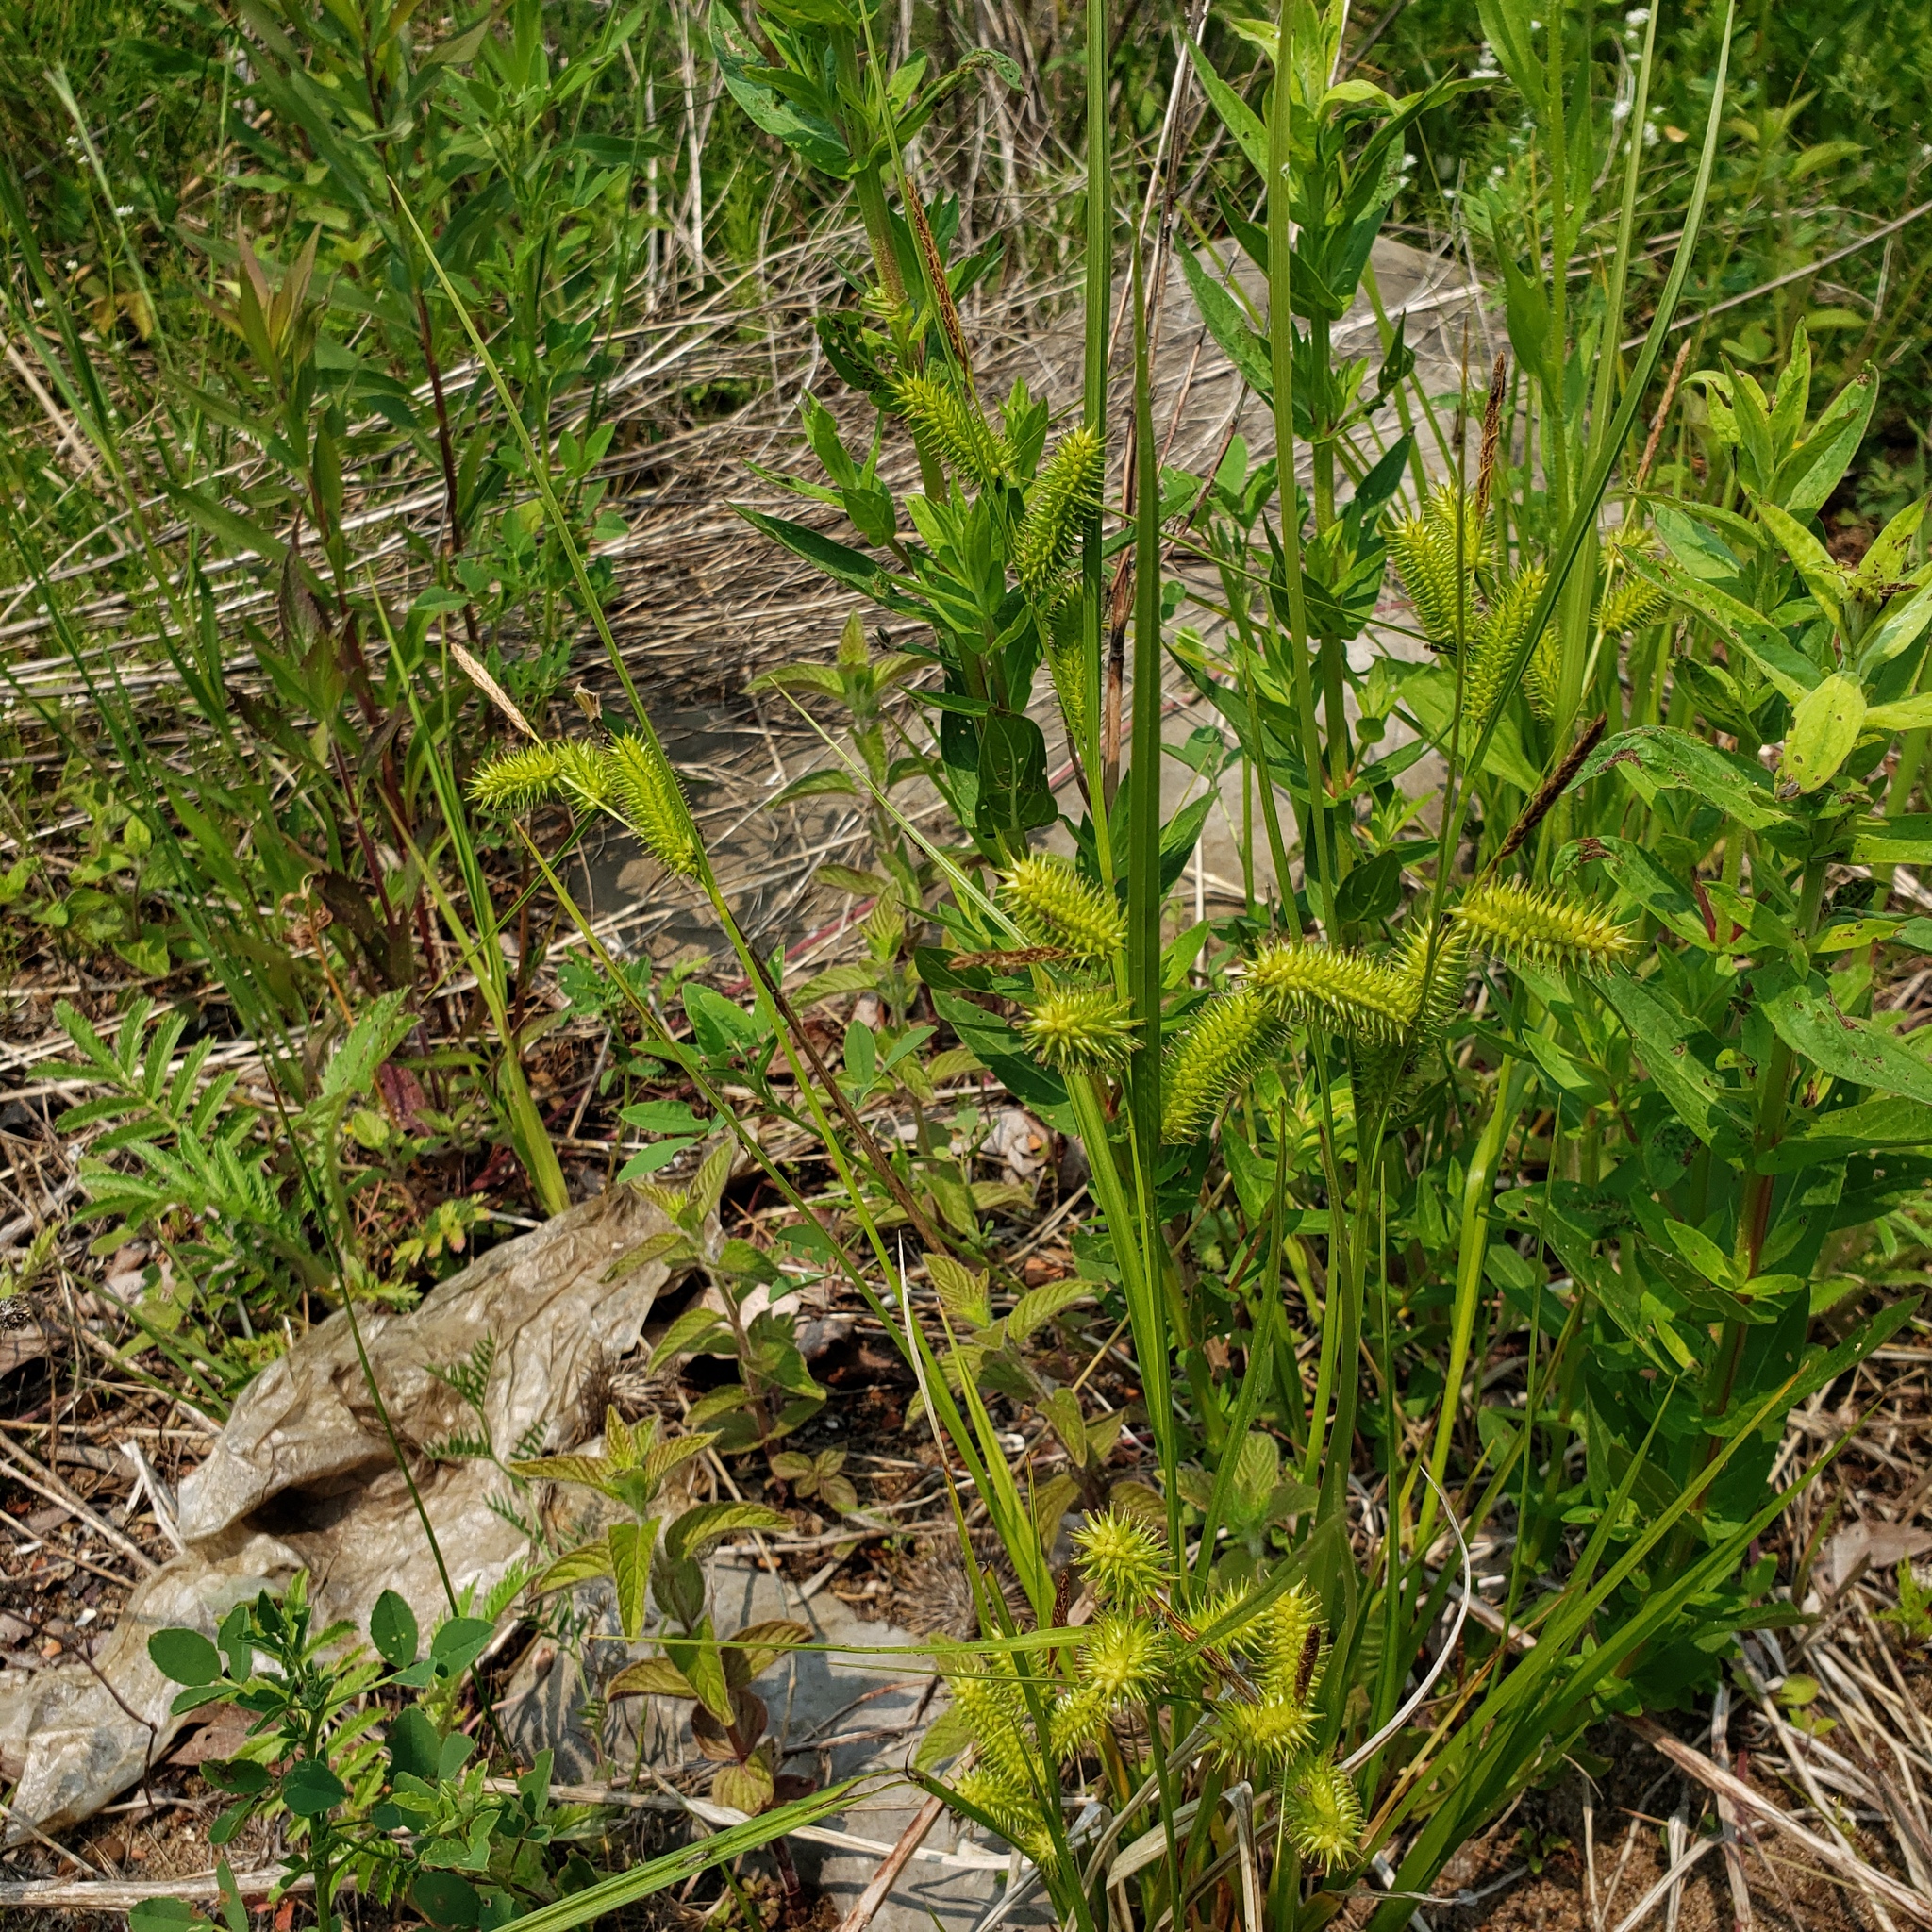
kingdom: Plantae
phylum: Tracheophyta
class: Liliopsida
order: Poales
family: Cyperaceae
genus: Carex
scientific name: Carex lurida
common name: Sallow sedge
